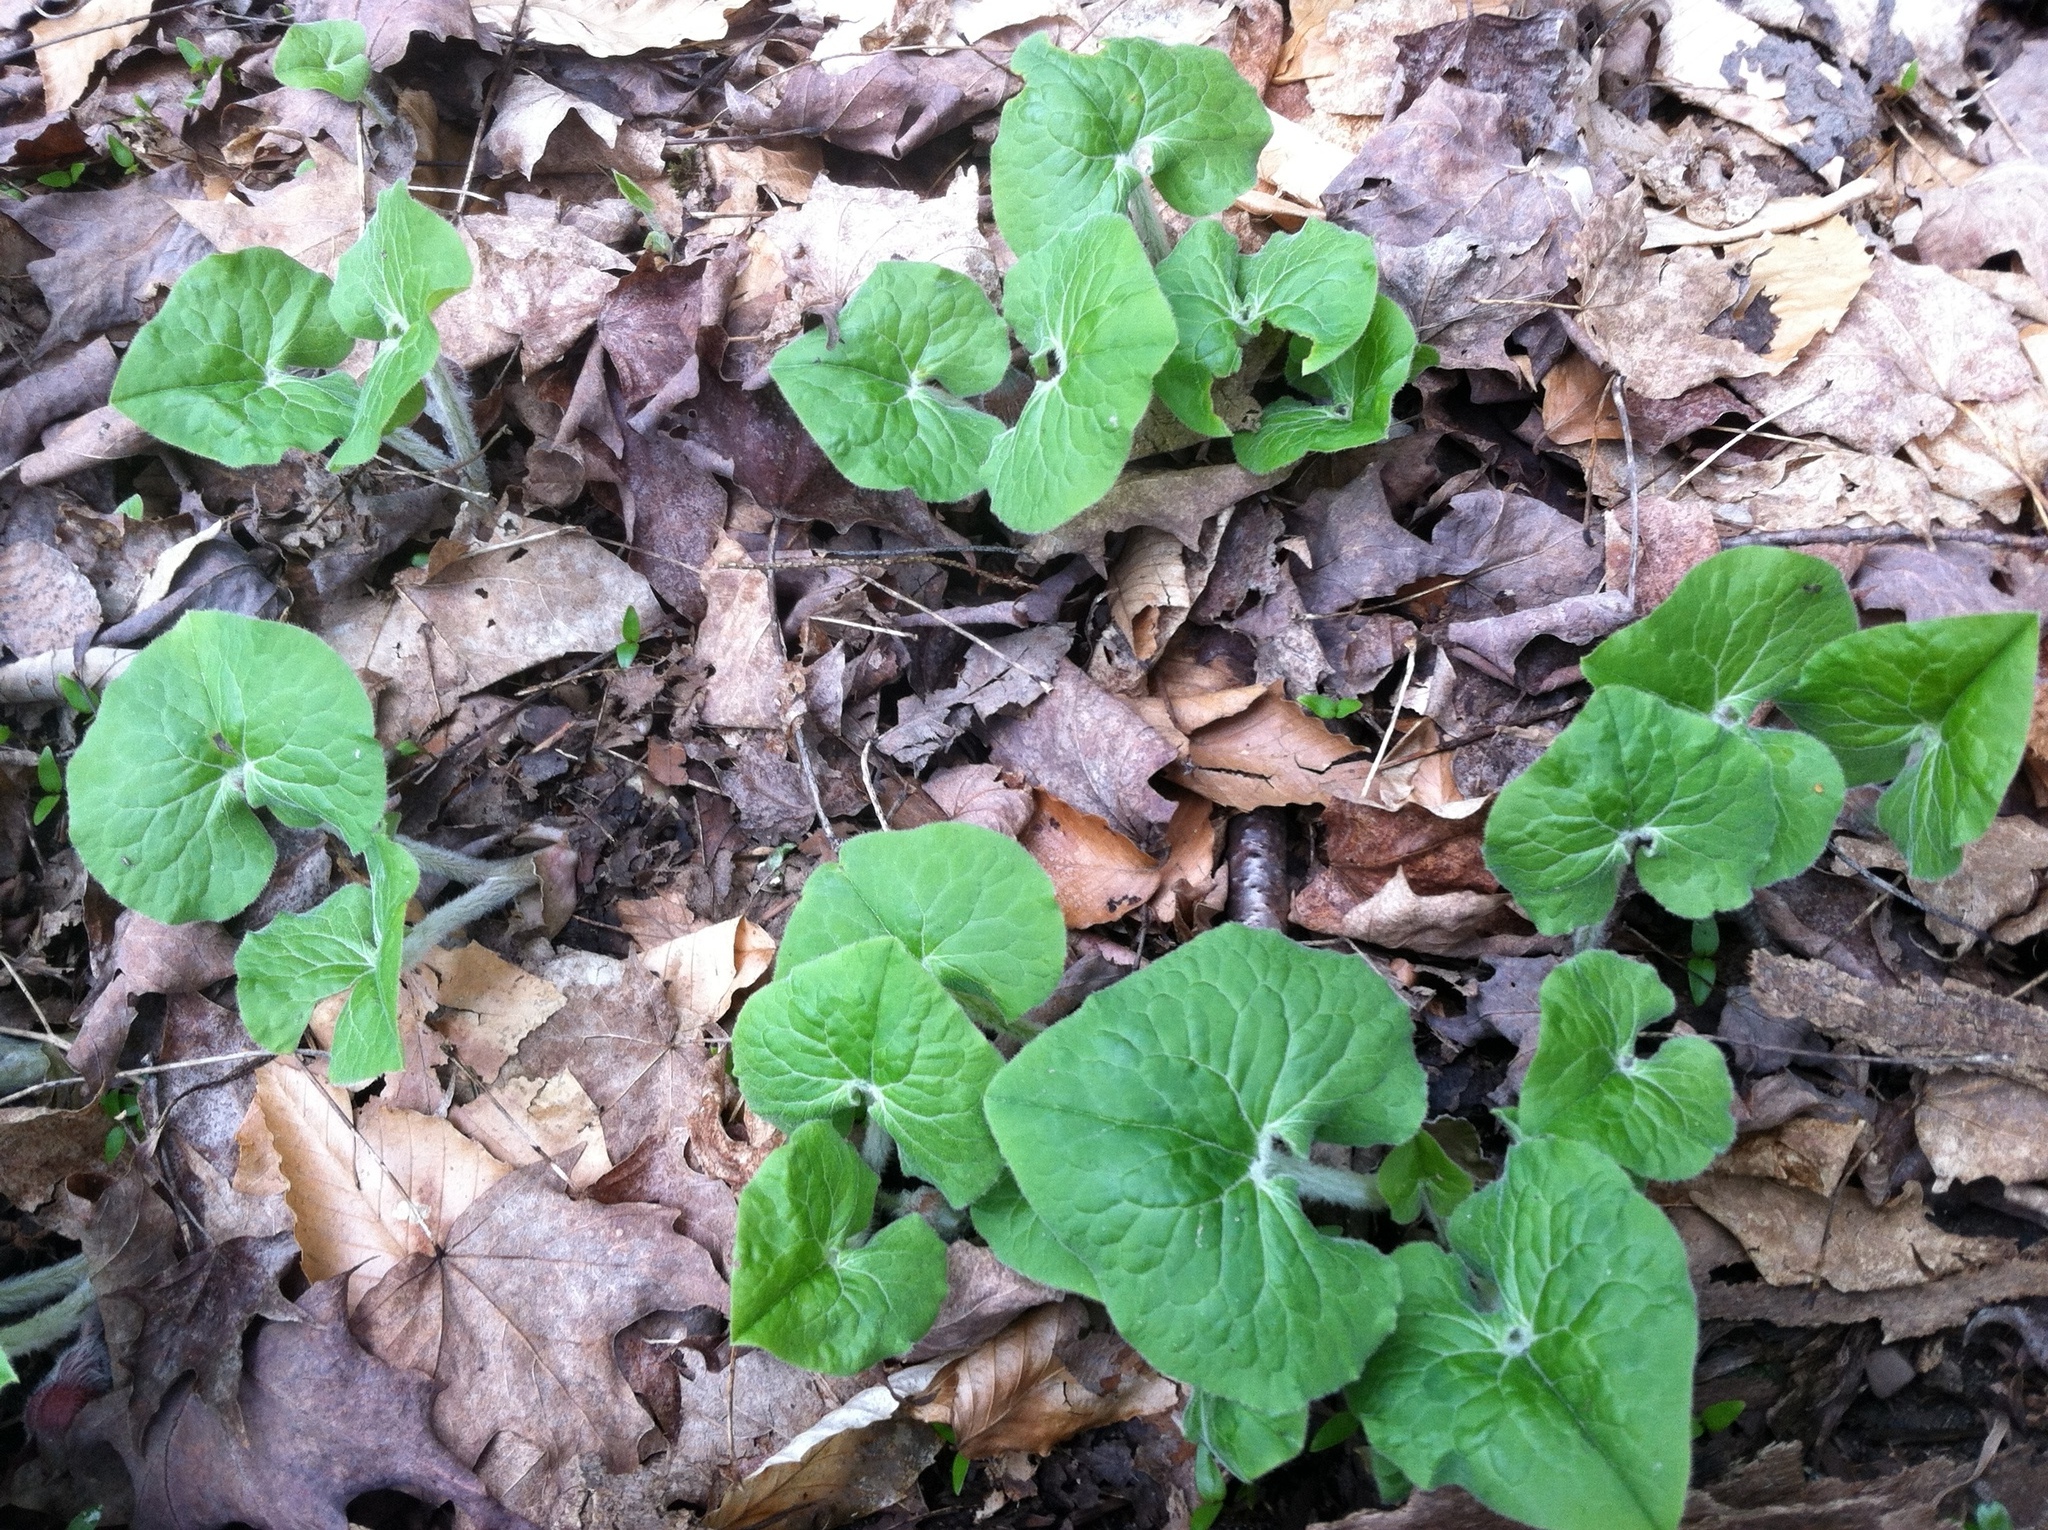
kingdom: Plantae
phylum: Tracheophyta
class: Magnoliopsida
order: Piperales
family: Aristolochiaceae
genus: Asarum
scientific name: Asarum canadense
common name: Wild ginger
